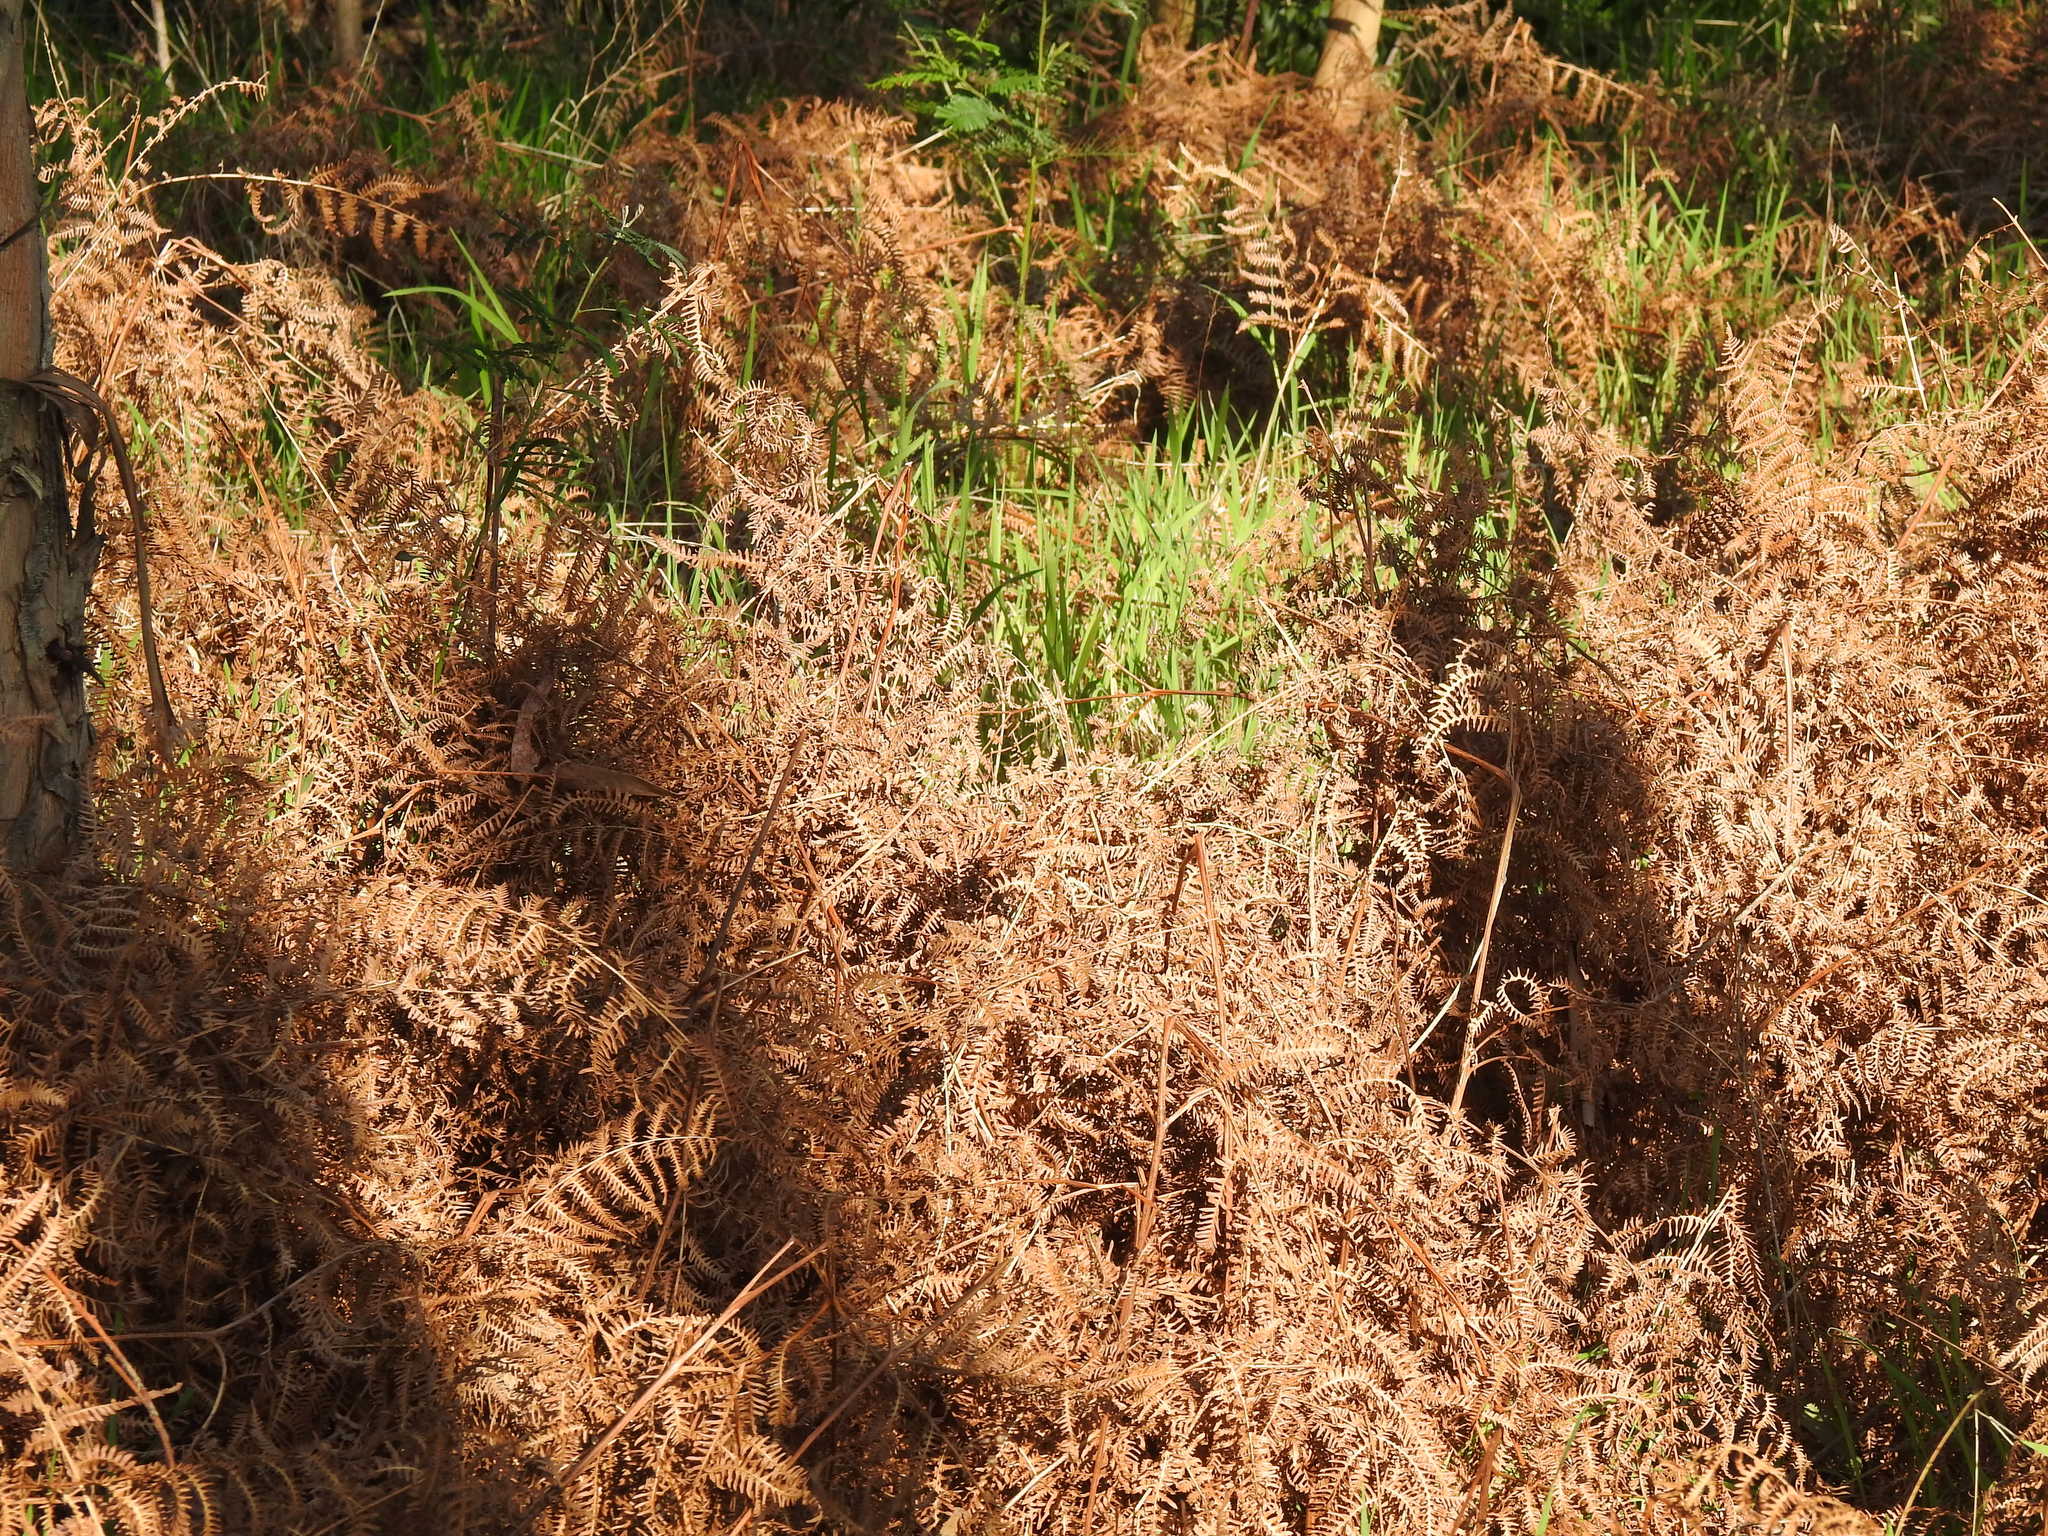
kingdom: Plantae
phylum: Tracheophyta
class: Polypodiopsida
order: Polypodiales
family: Dennstaedtiaceae
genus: Pteridium
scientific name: Pteridium aquilinum
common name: Bracken
